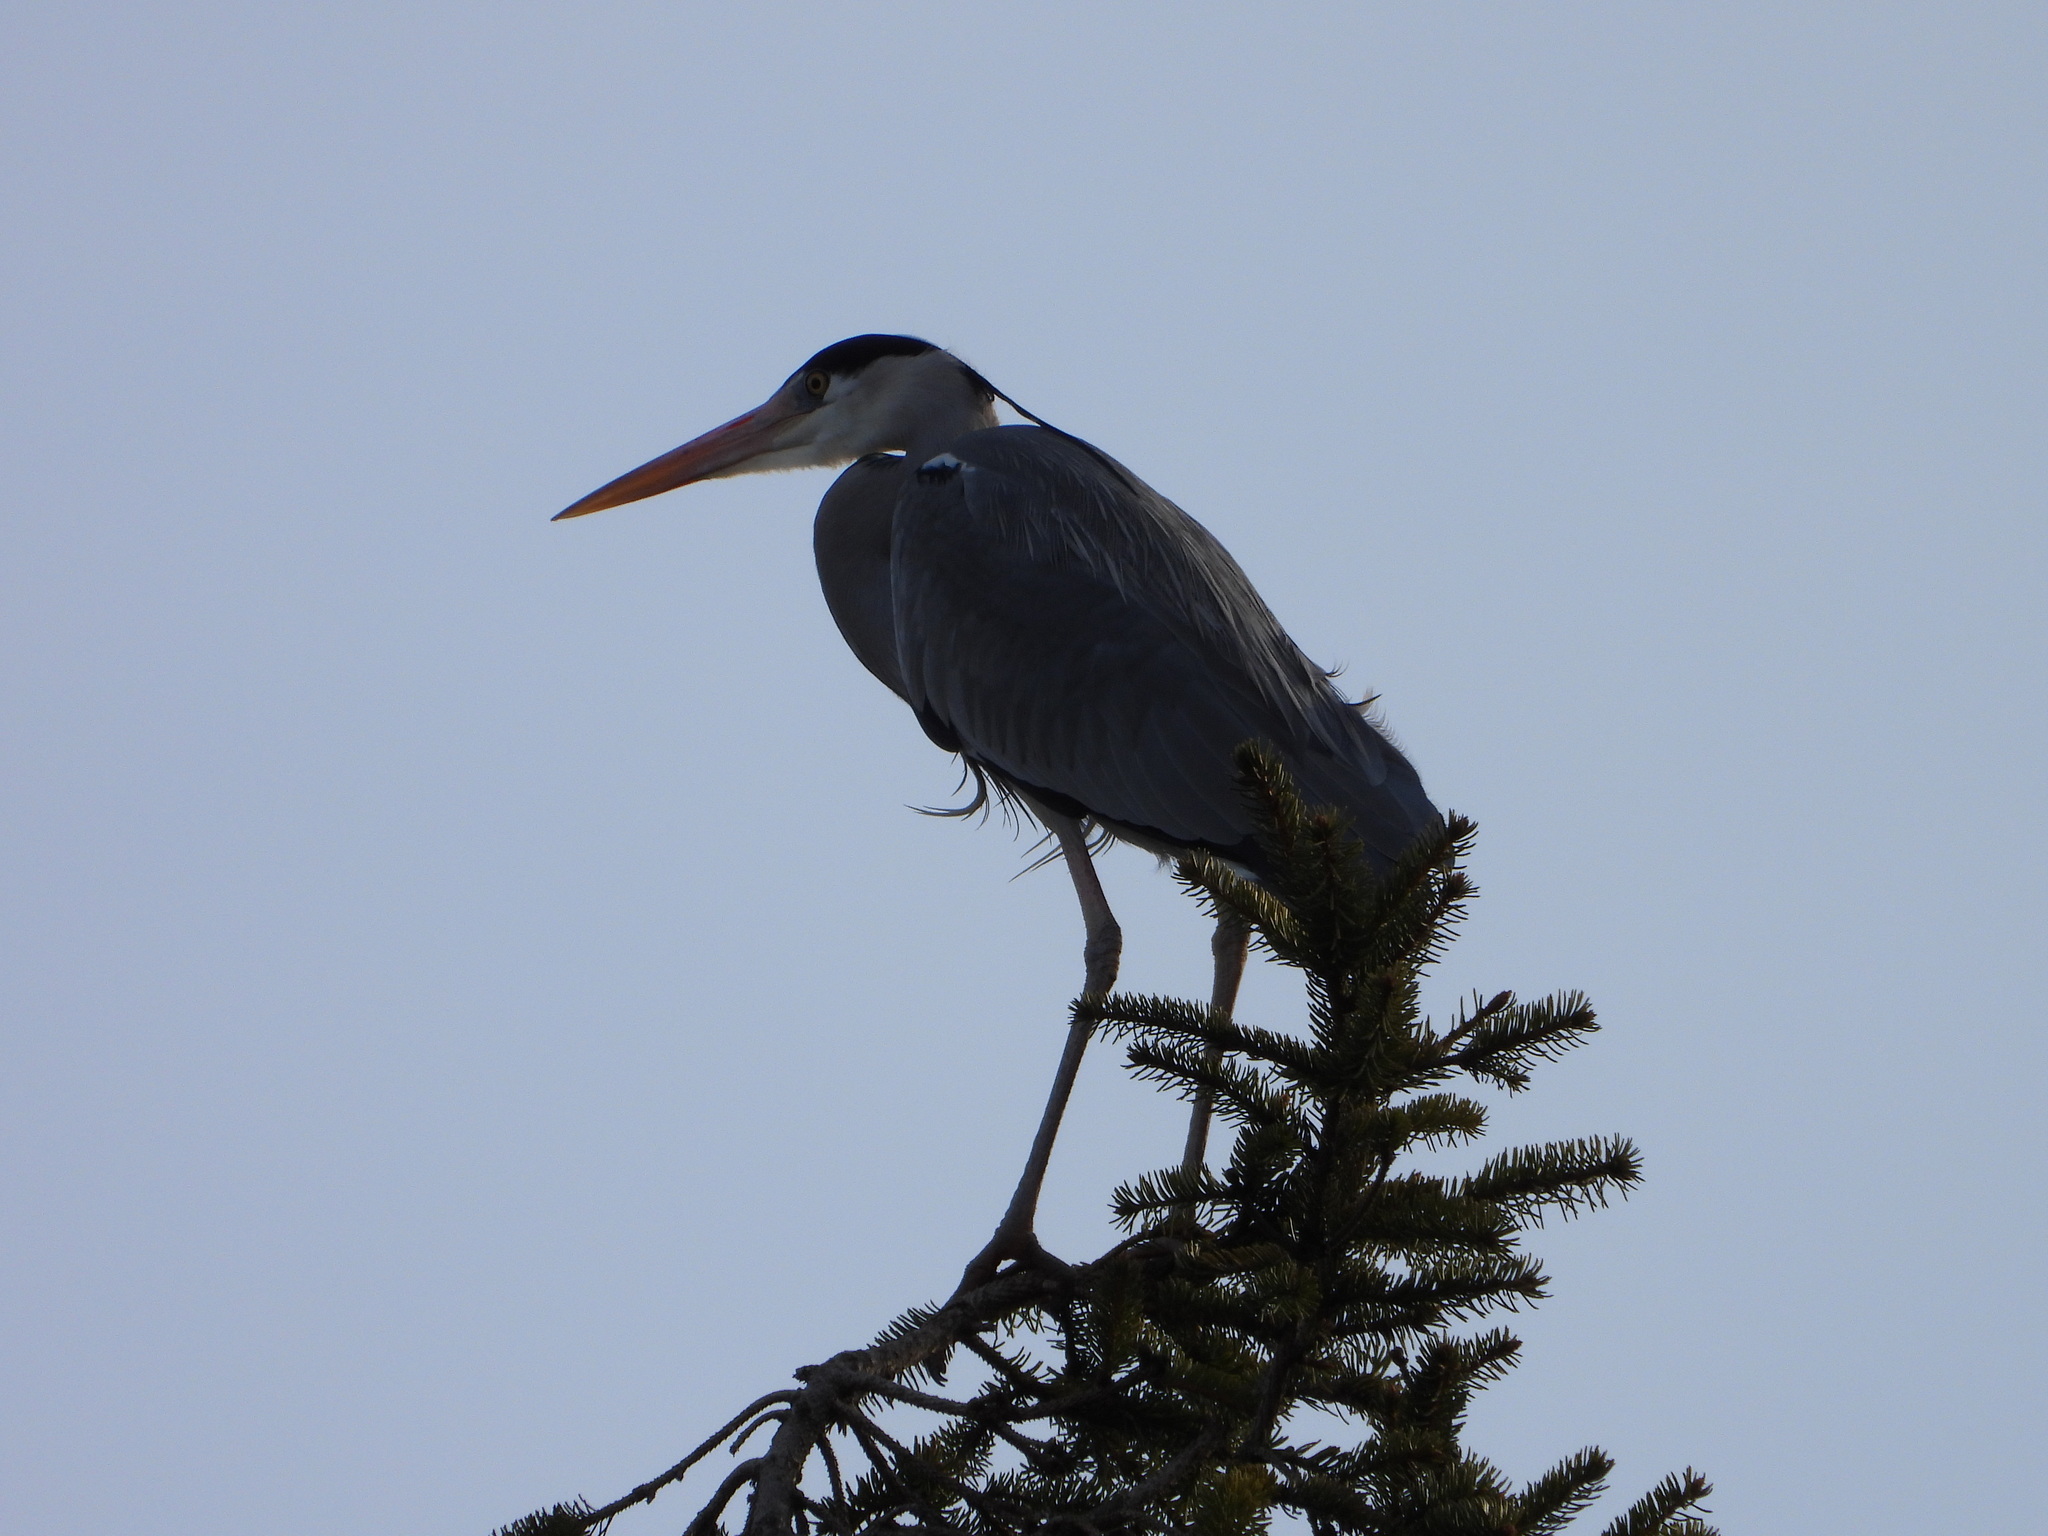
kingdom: Animalia
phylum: Chordata
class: Aves
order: Pelecaniformes
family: Ardeidae
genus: Ardea
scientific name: Ardea cinerea
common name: Grey heron
